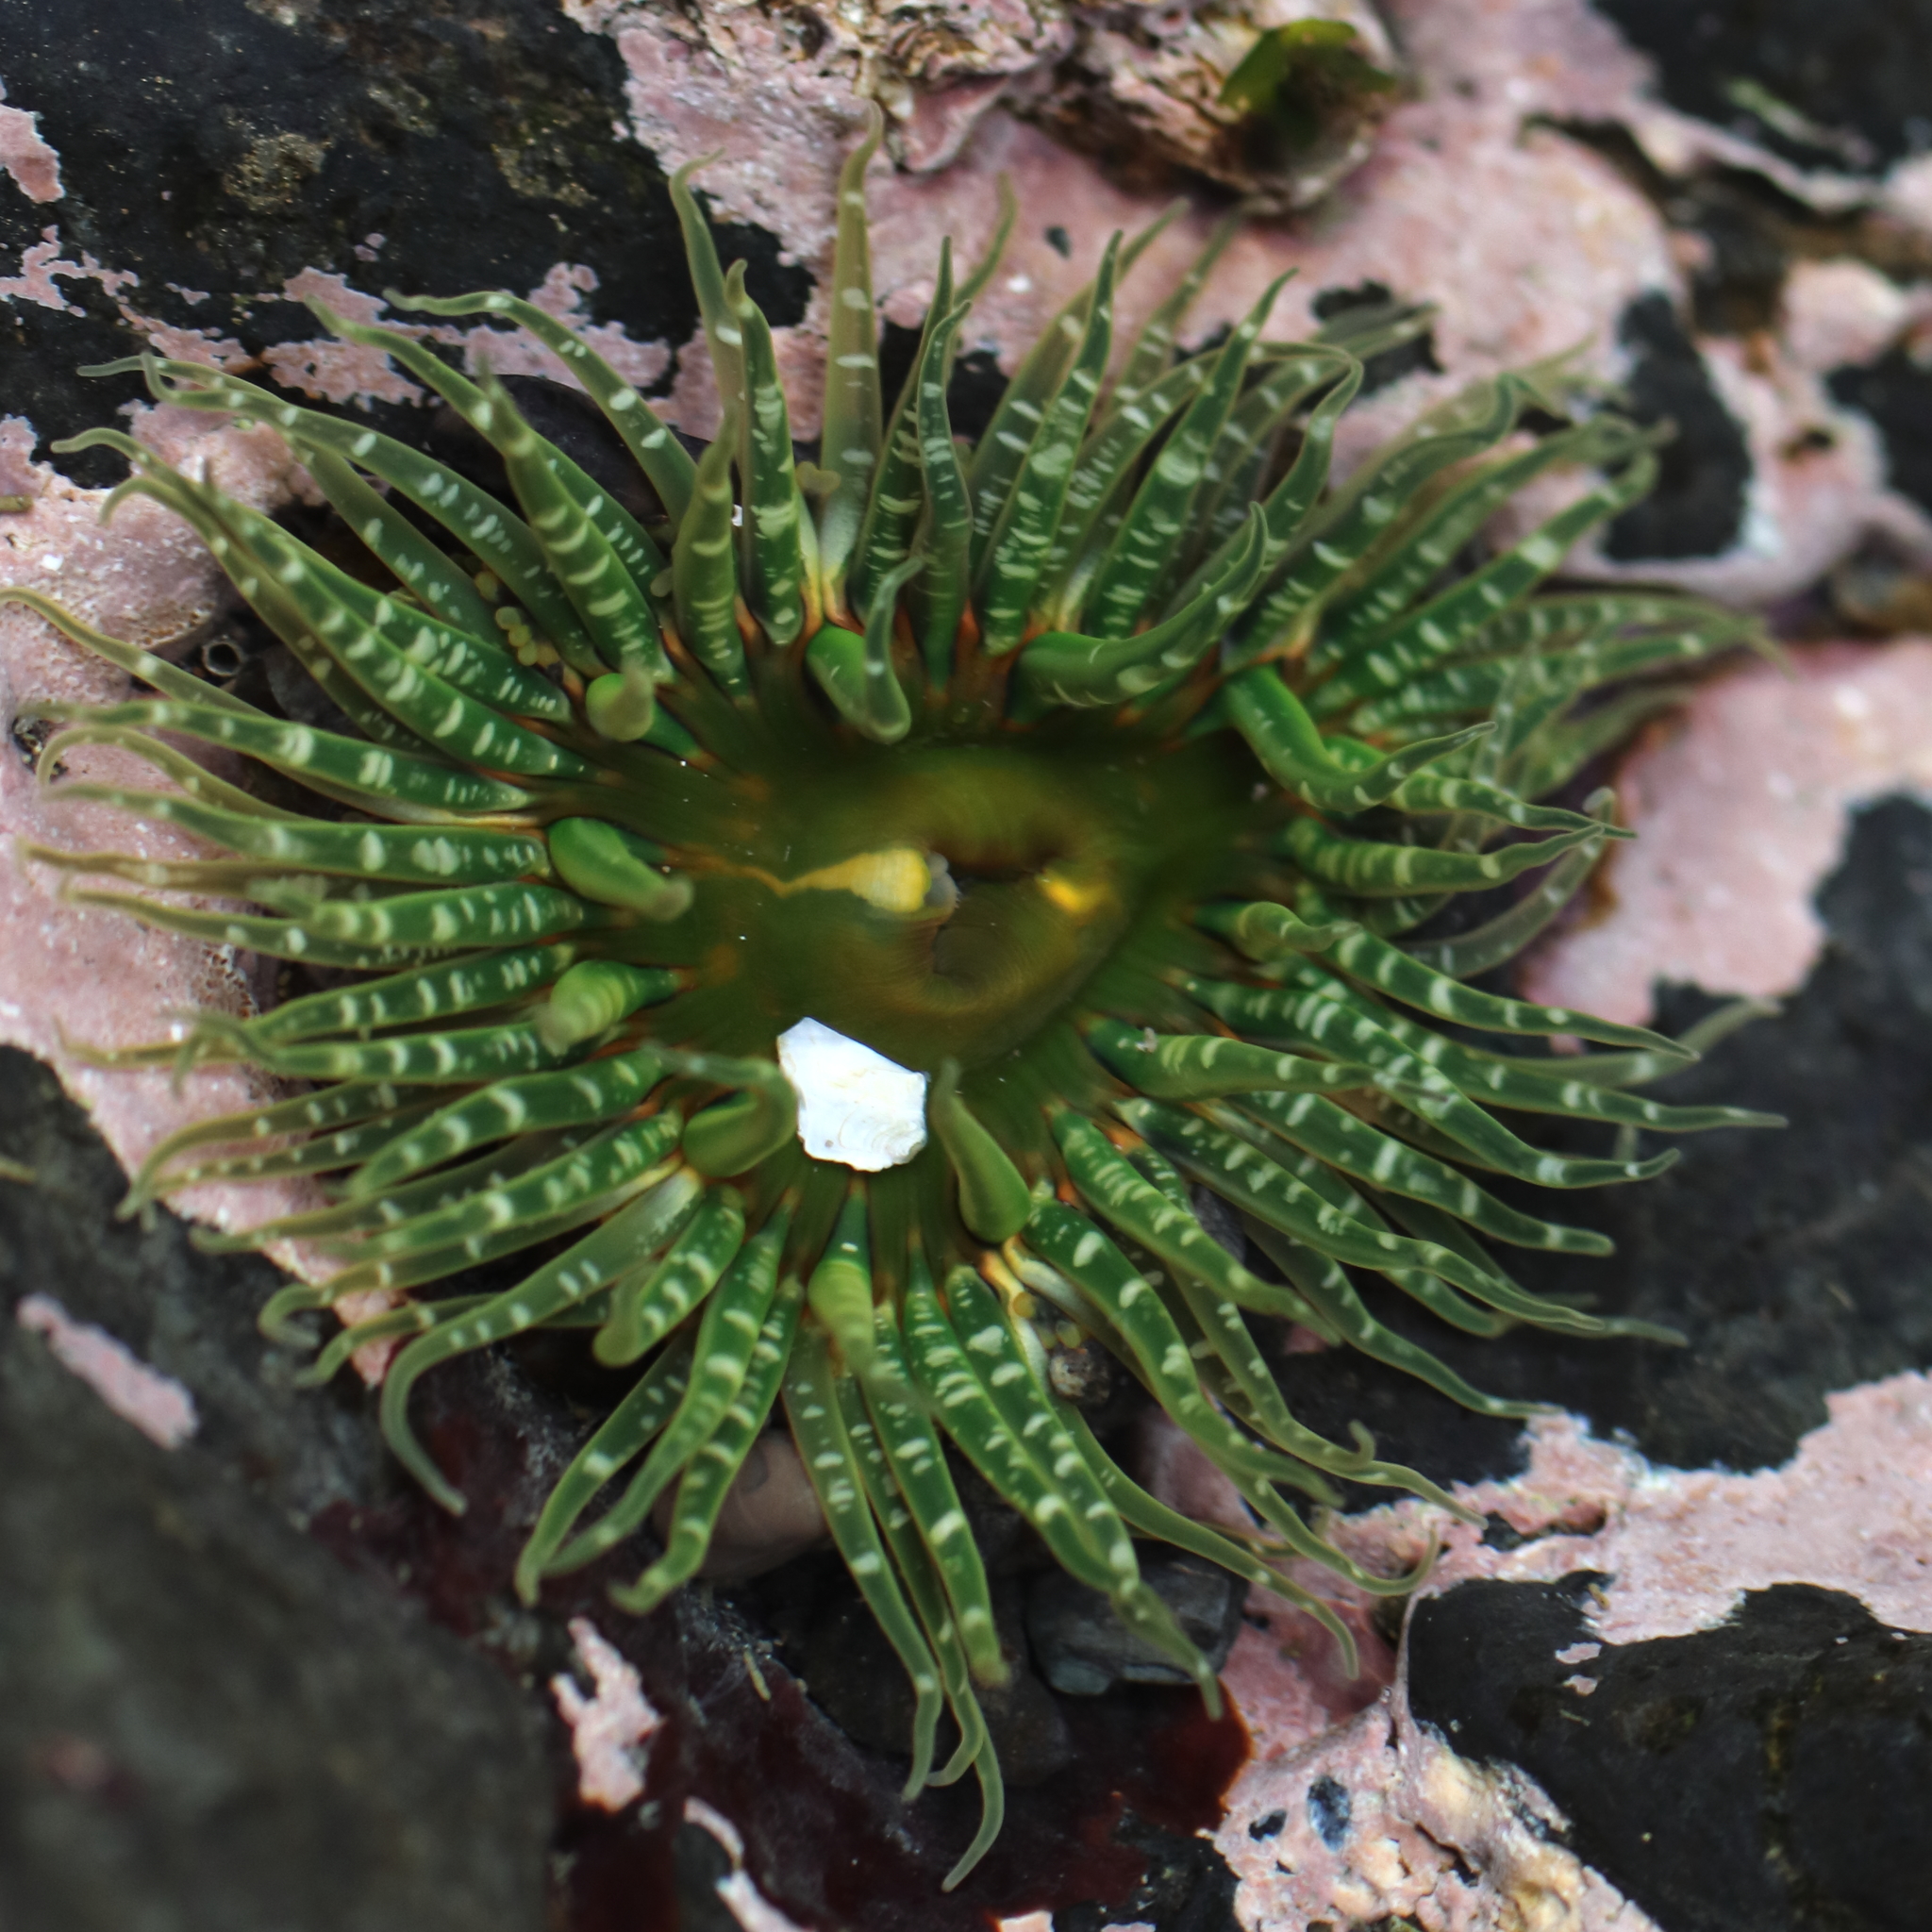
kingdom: Animalia
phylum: Cnidaria
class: Anthozoa
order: Actiniaria
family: Actiniidae
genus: Anthopleura
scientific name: Anthopleura artemisia
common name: Buried sea anemone
